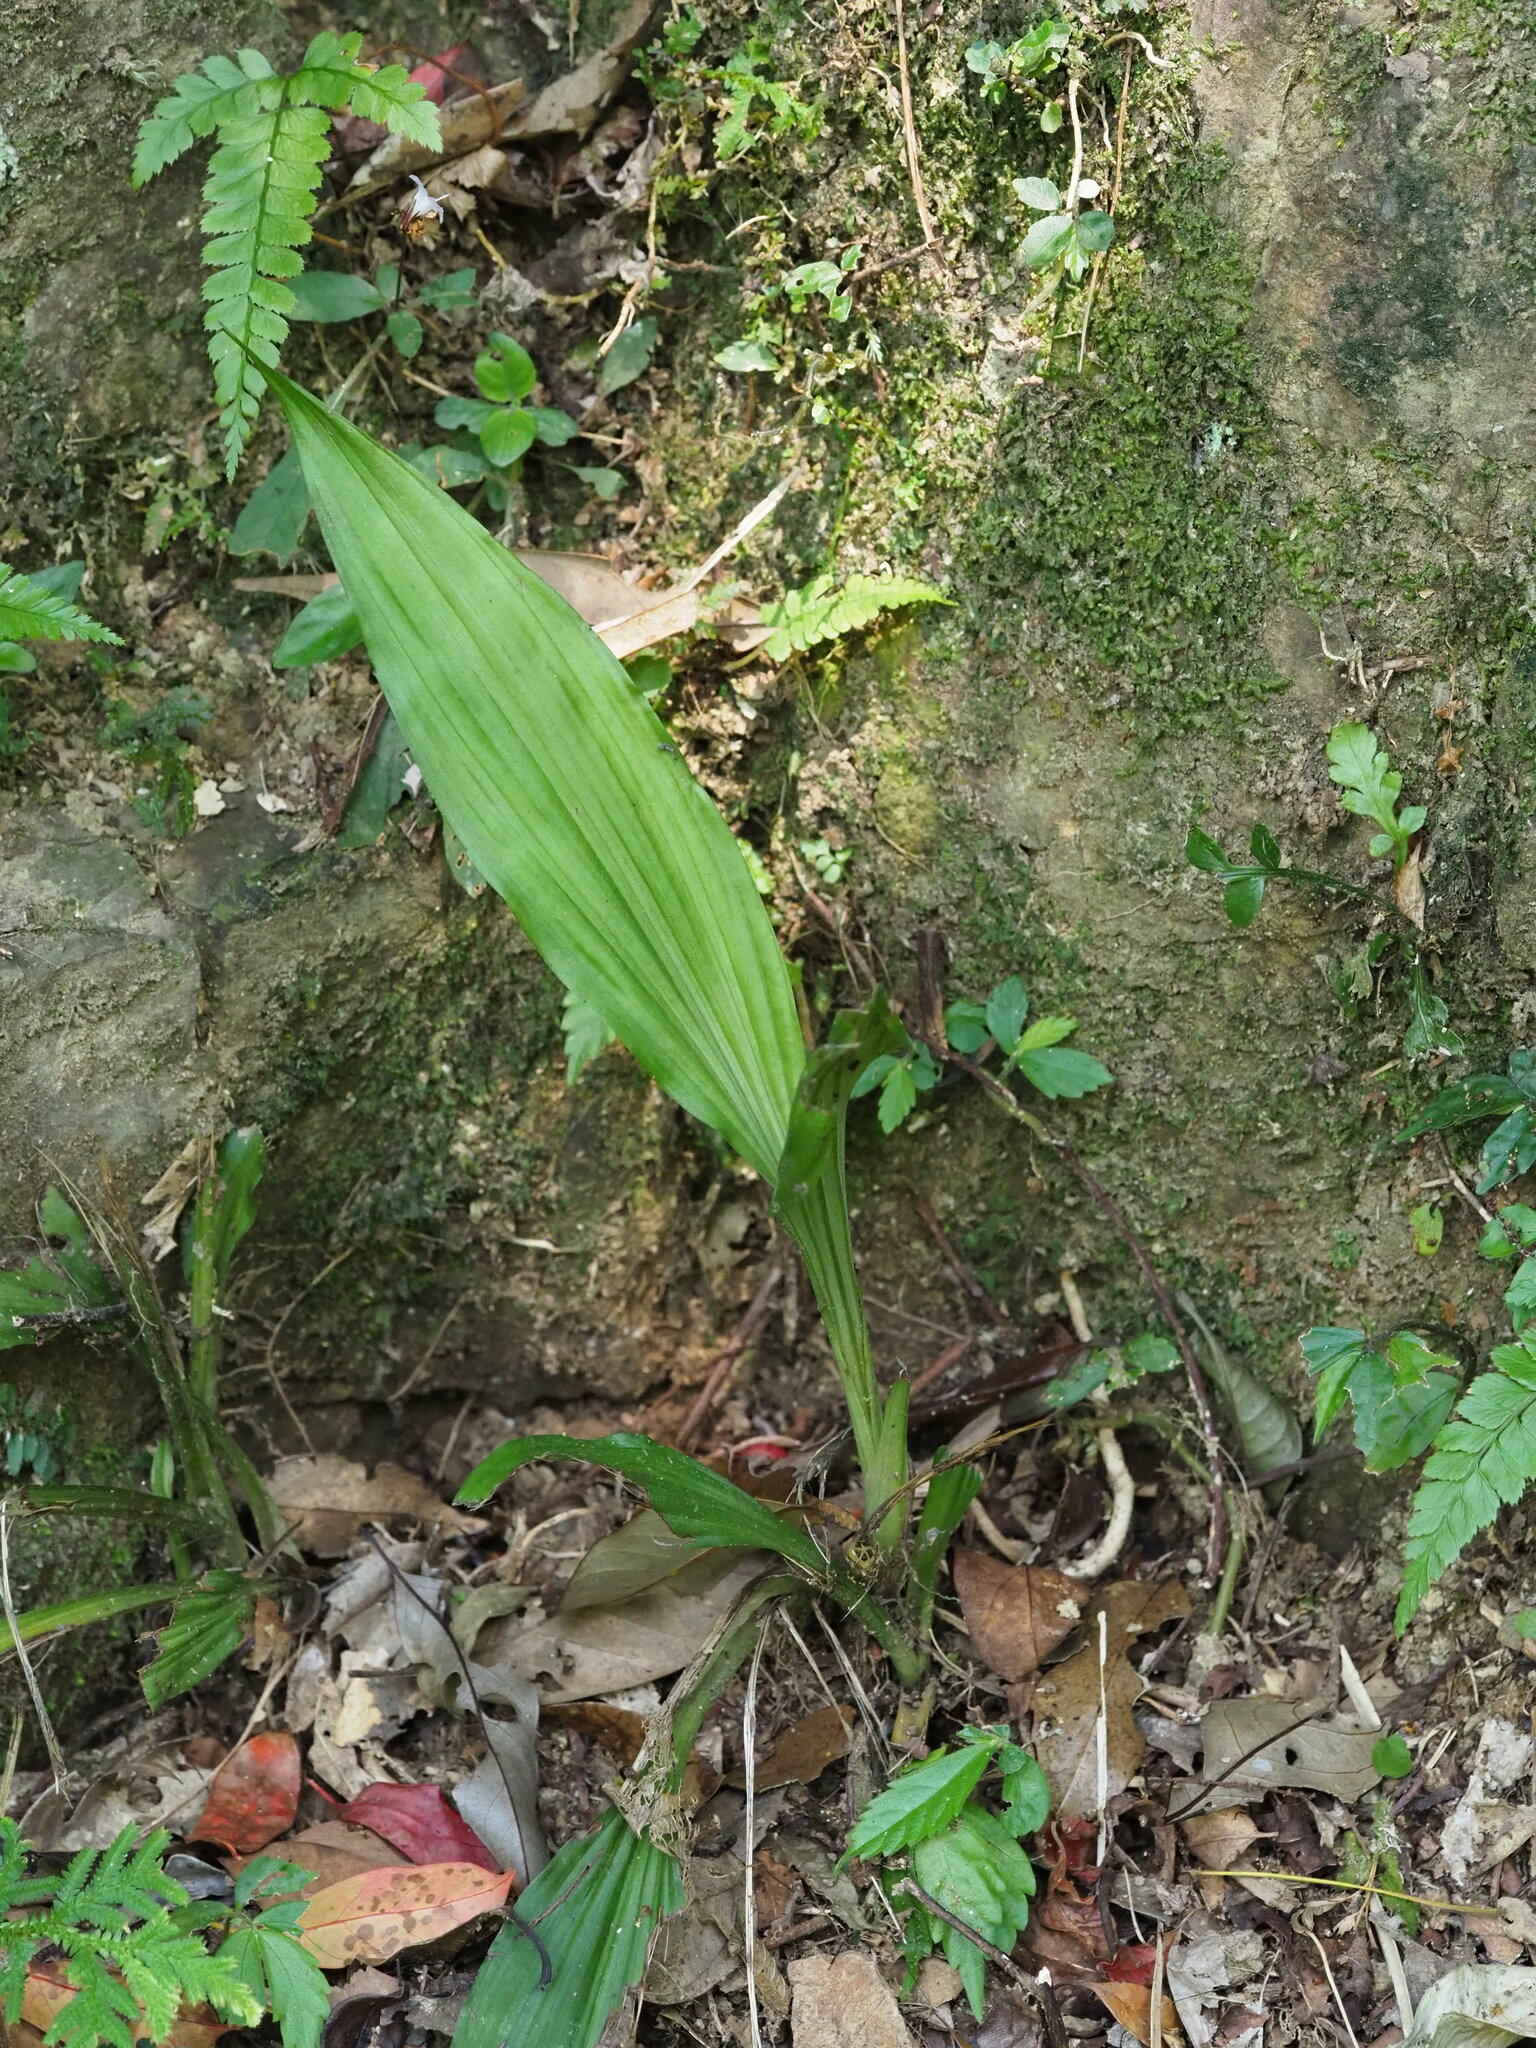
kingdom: Plantae
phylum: Tracheophyta
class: Liliopsida
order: Asparagales
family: Orchidaceae
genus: Calanthe
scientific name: Calanthe triplicata
